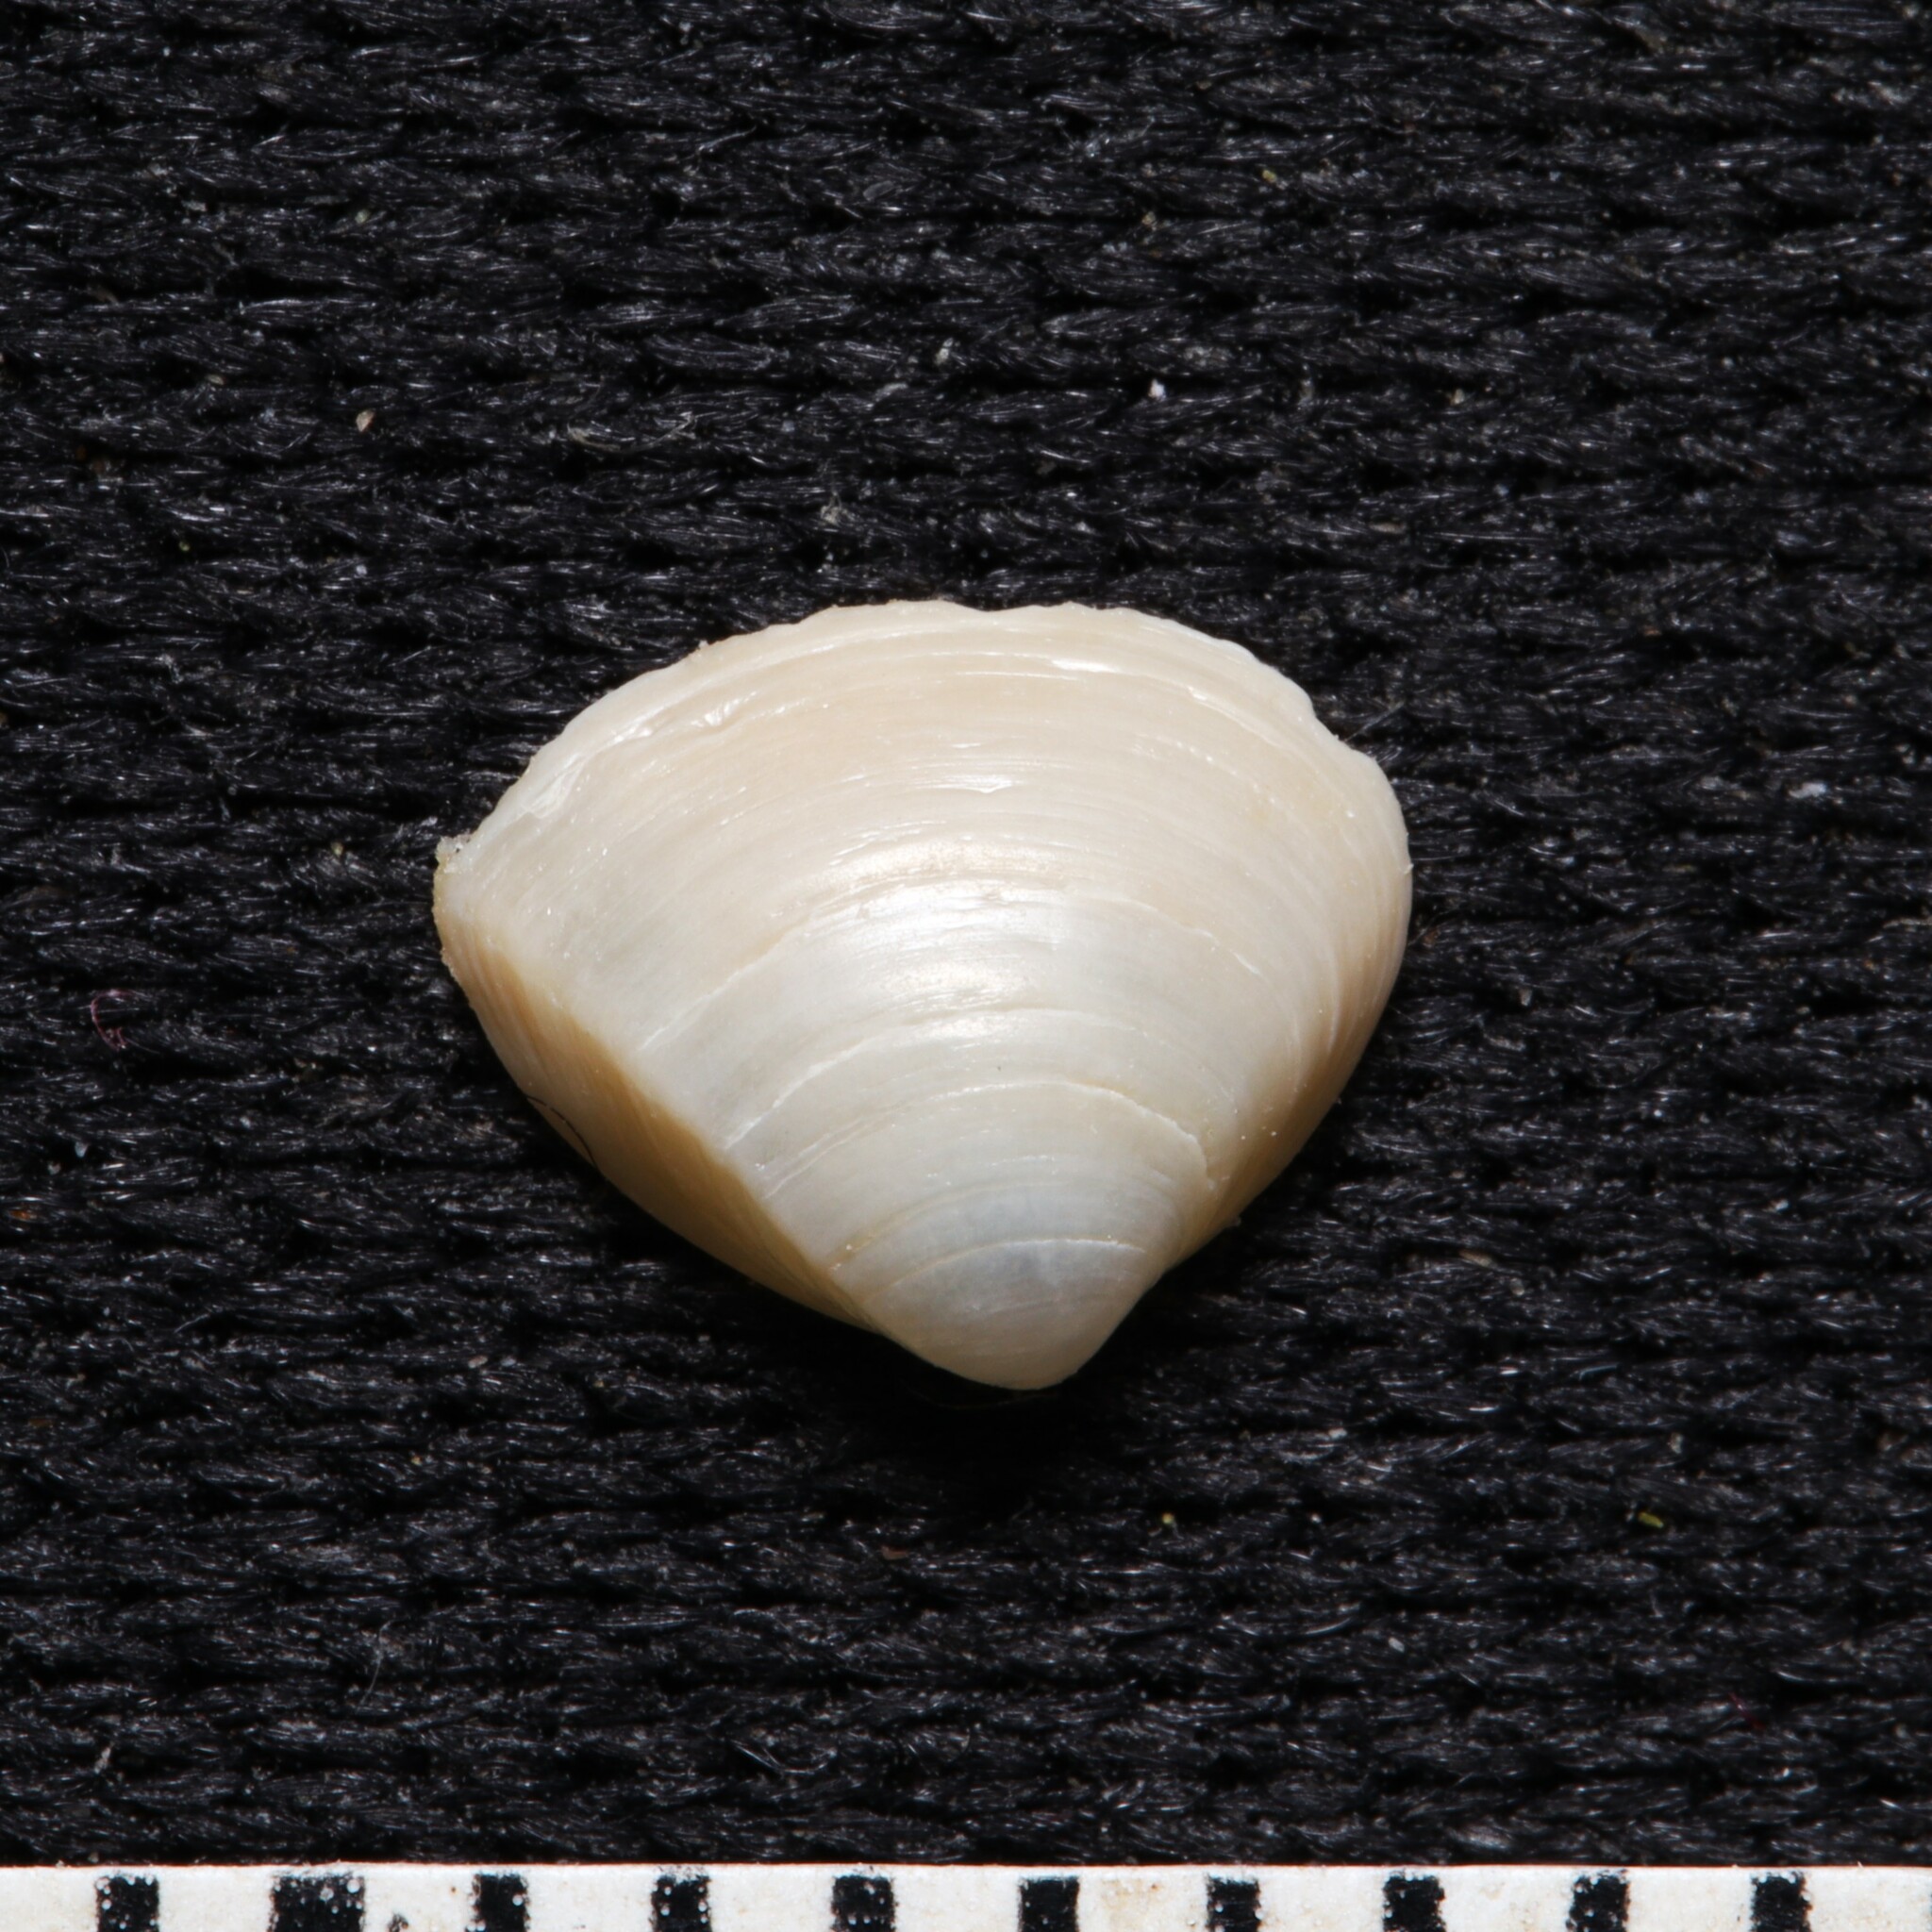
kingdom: Animalia
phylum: Mollusca
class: Bivalvia
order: Venerida
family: Mactridae
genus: Mulinia
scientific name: Mulinia lateralis
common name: Dwarf surfclam
